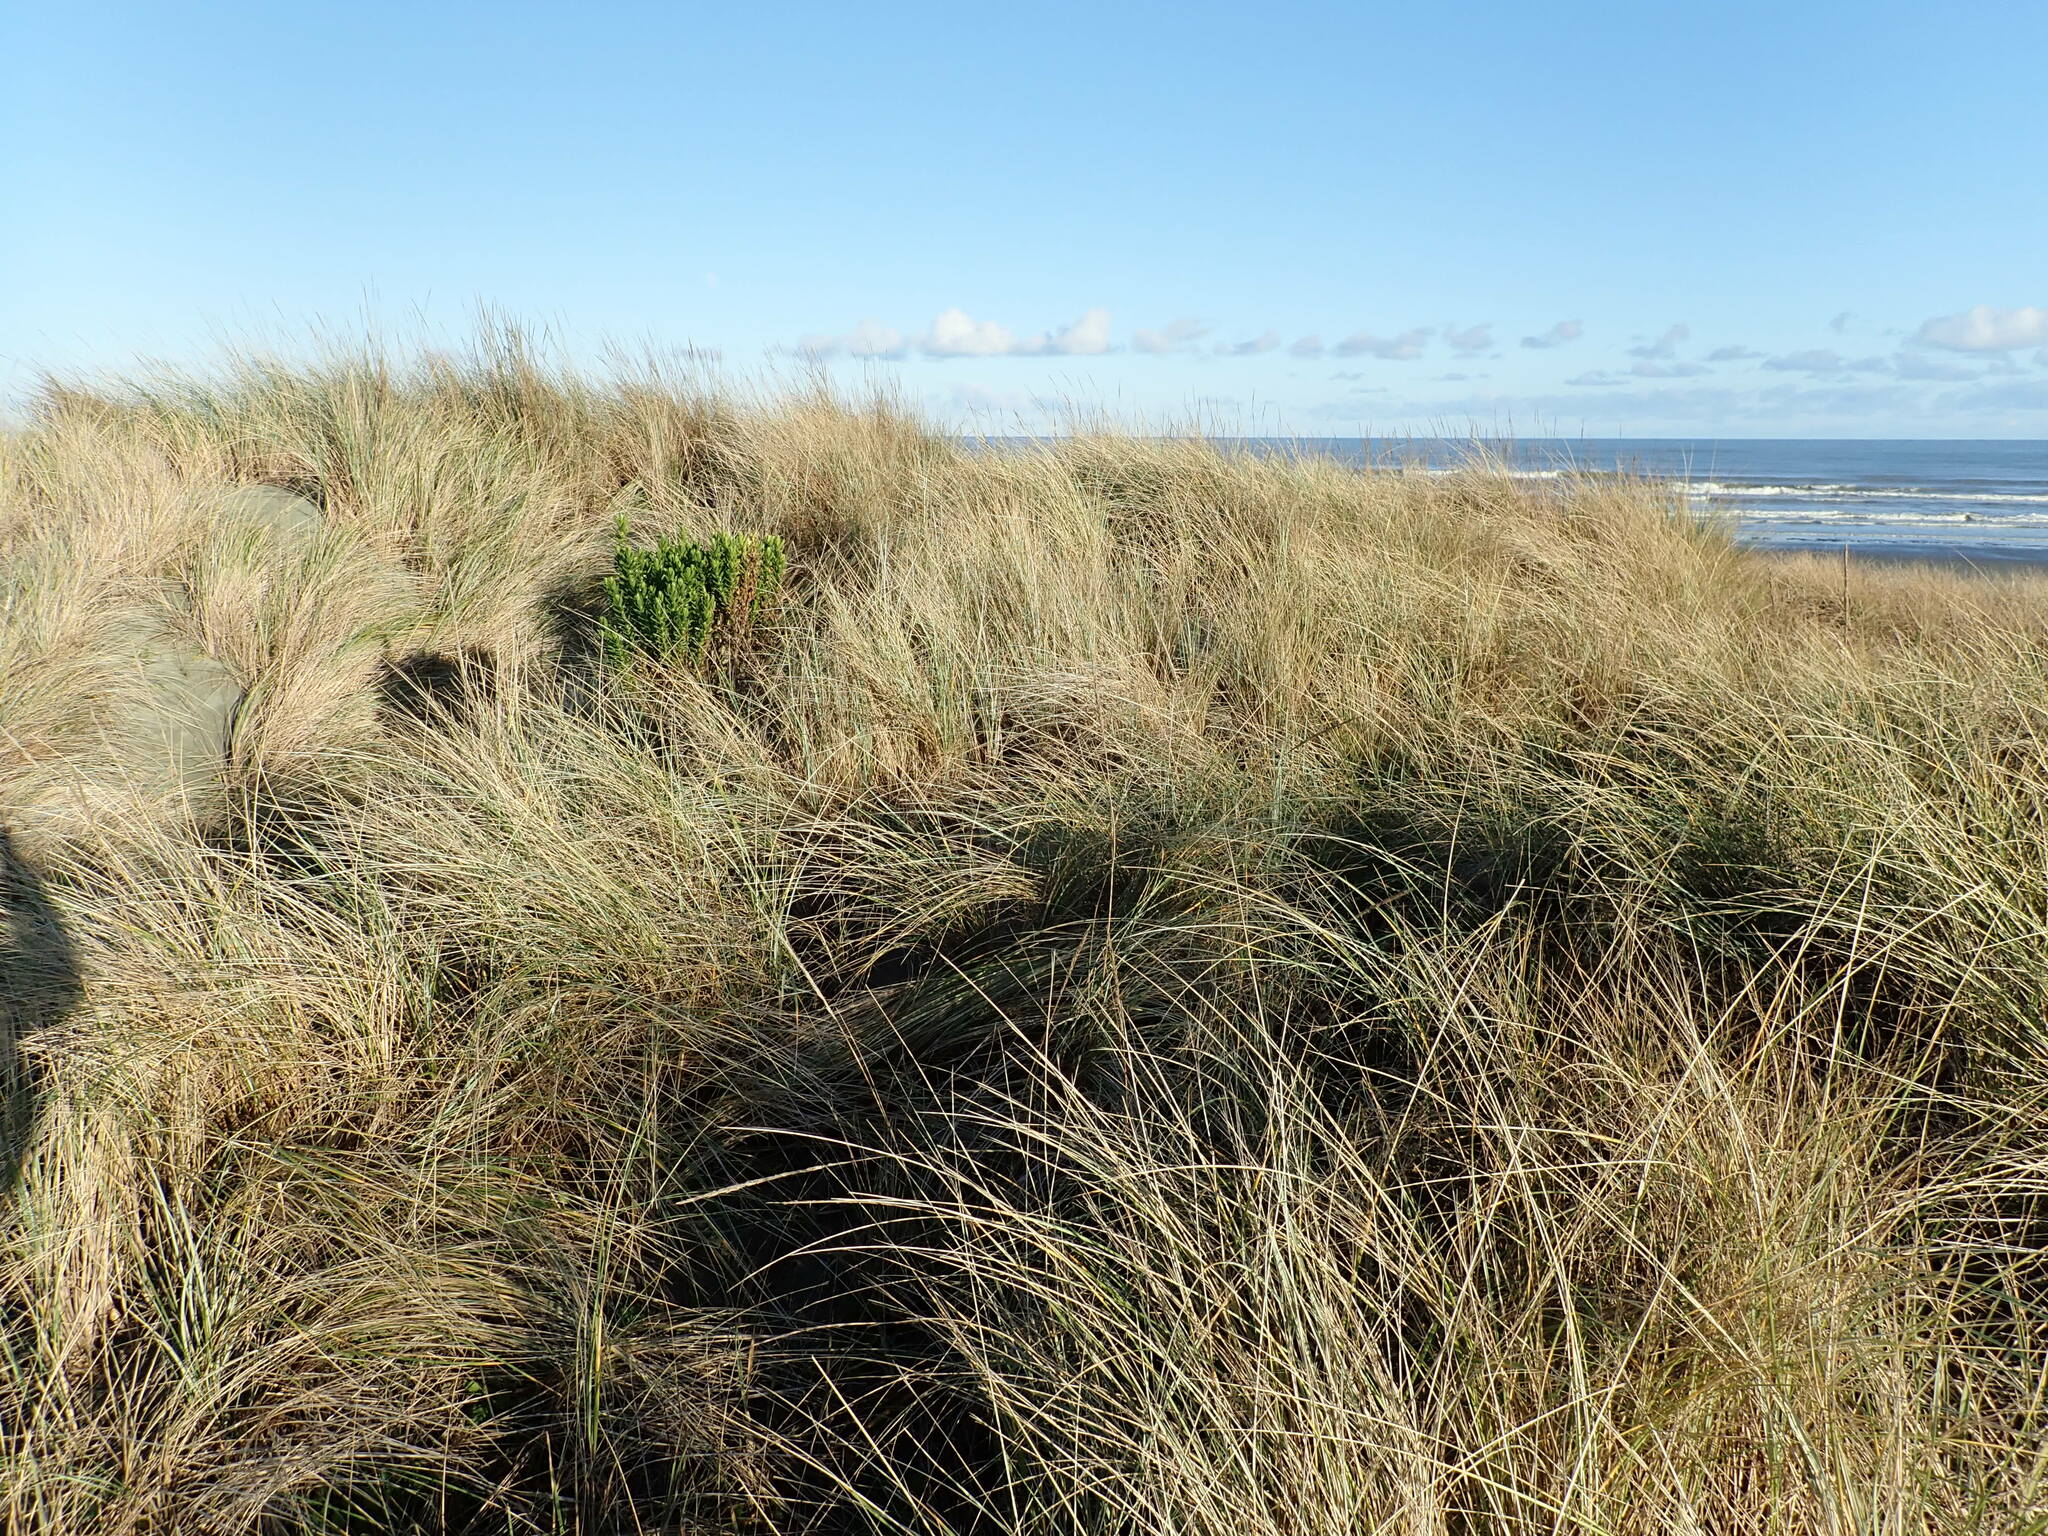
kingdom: Plantae
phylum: Tracheophyta
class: Magnoliopsida
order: Asterales
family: Asteraceae
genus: Senecio
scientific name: Senecio glastifolius
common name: Woad-leaved ragwort
